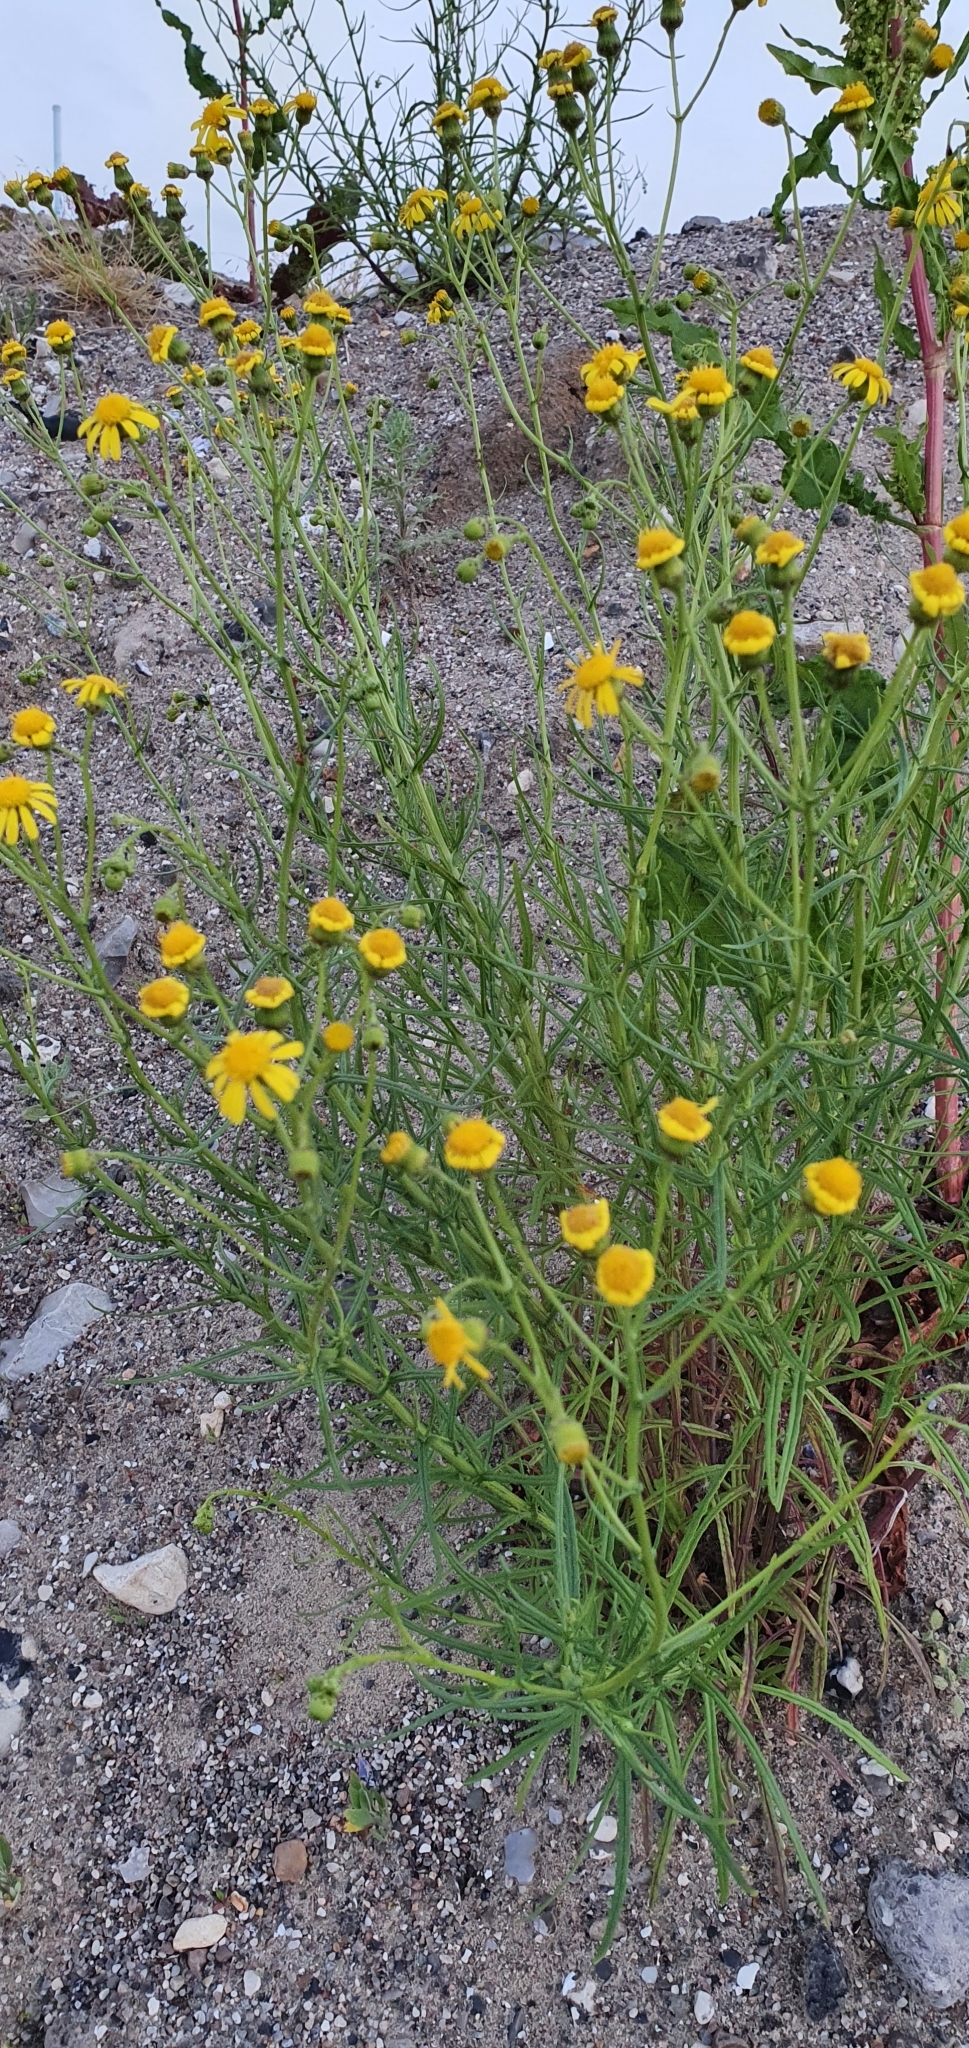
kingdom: Plantae
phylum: Tracheophyta
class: Magnoliopsida
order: Asterales
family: Asteraceae
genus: Senecio
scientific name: Senecio inaequidens
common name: Narrow-leaved ragwort
